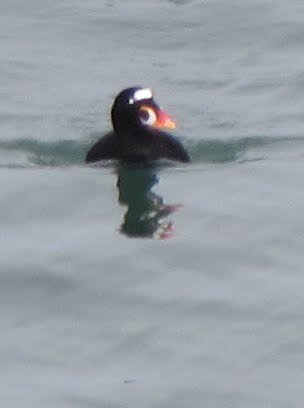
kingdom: Animalia
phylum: Chordata
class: Aves
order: Anseriformes
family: Anatidae
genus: Melanitta
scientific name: Melanitta perspicillata
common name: Surf scoter
